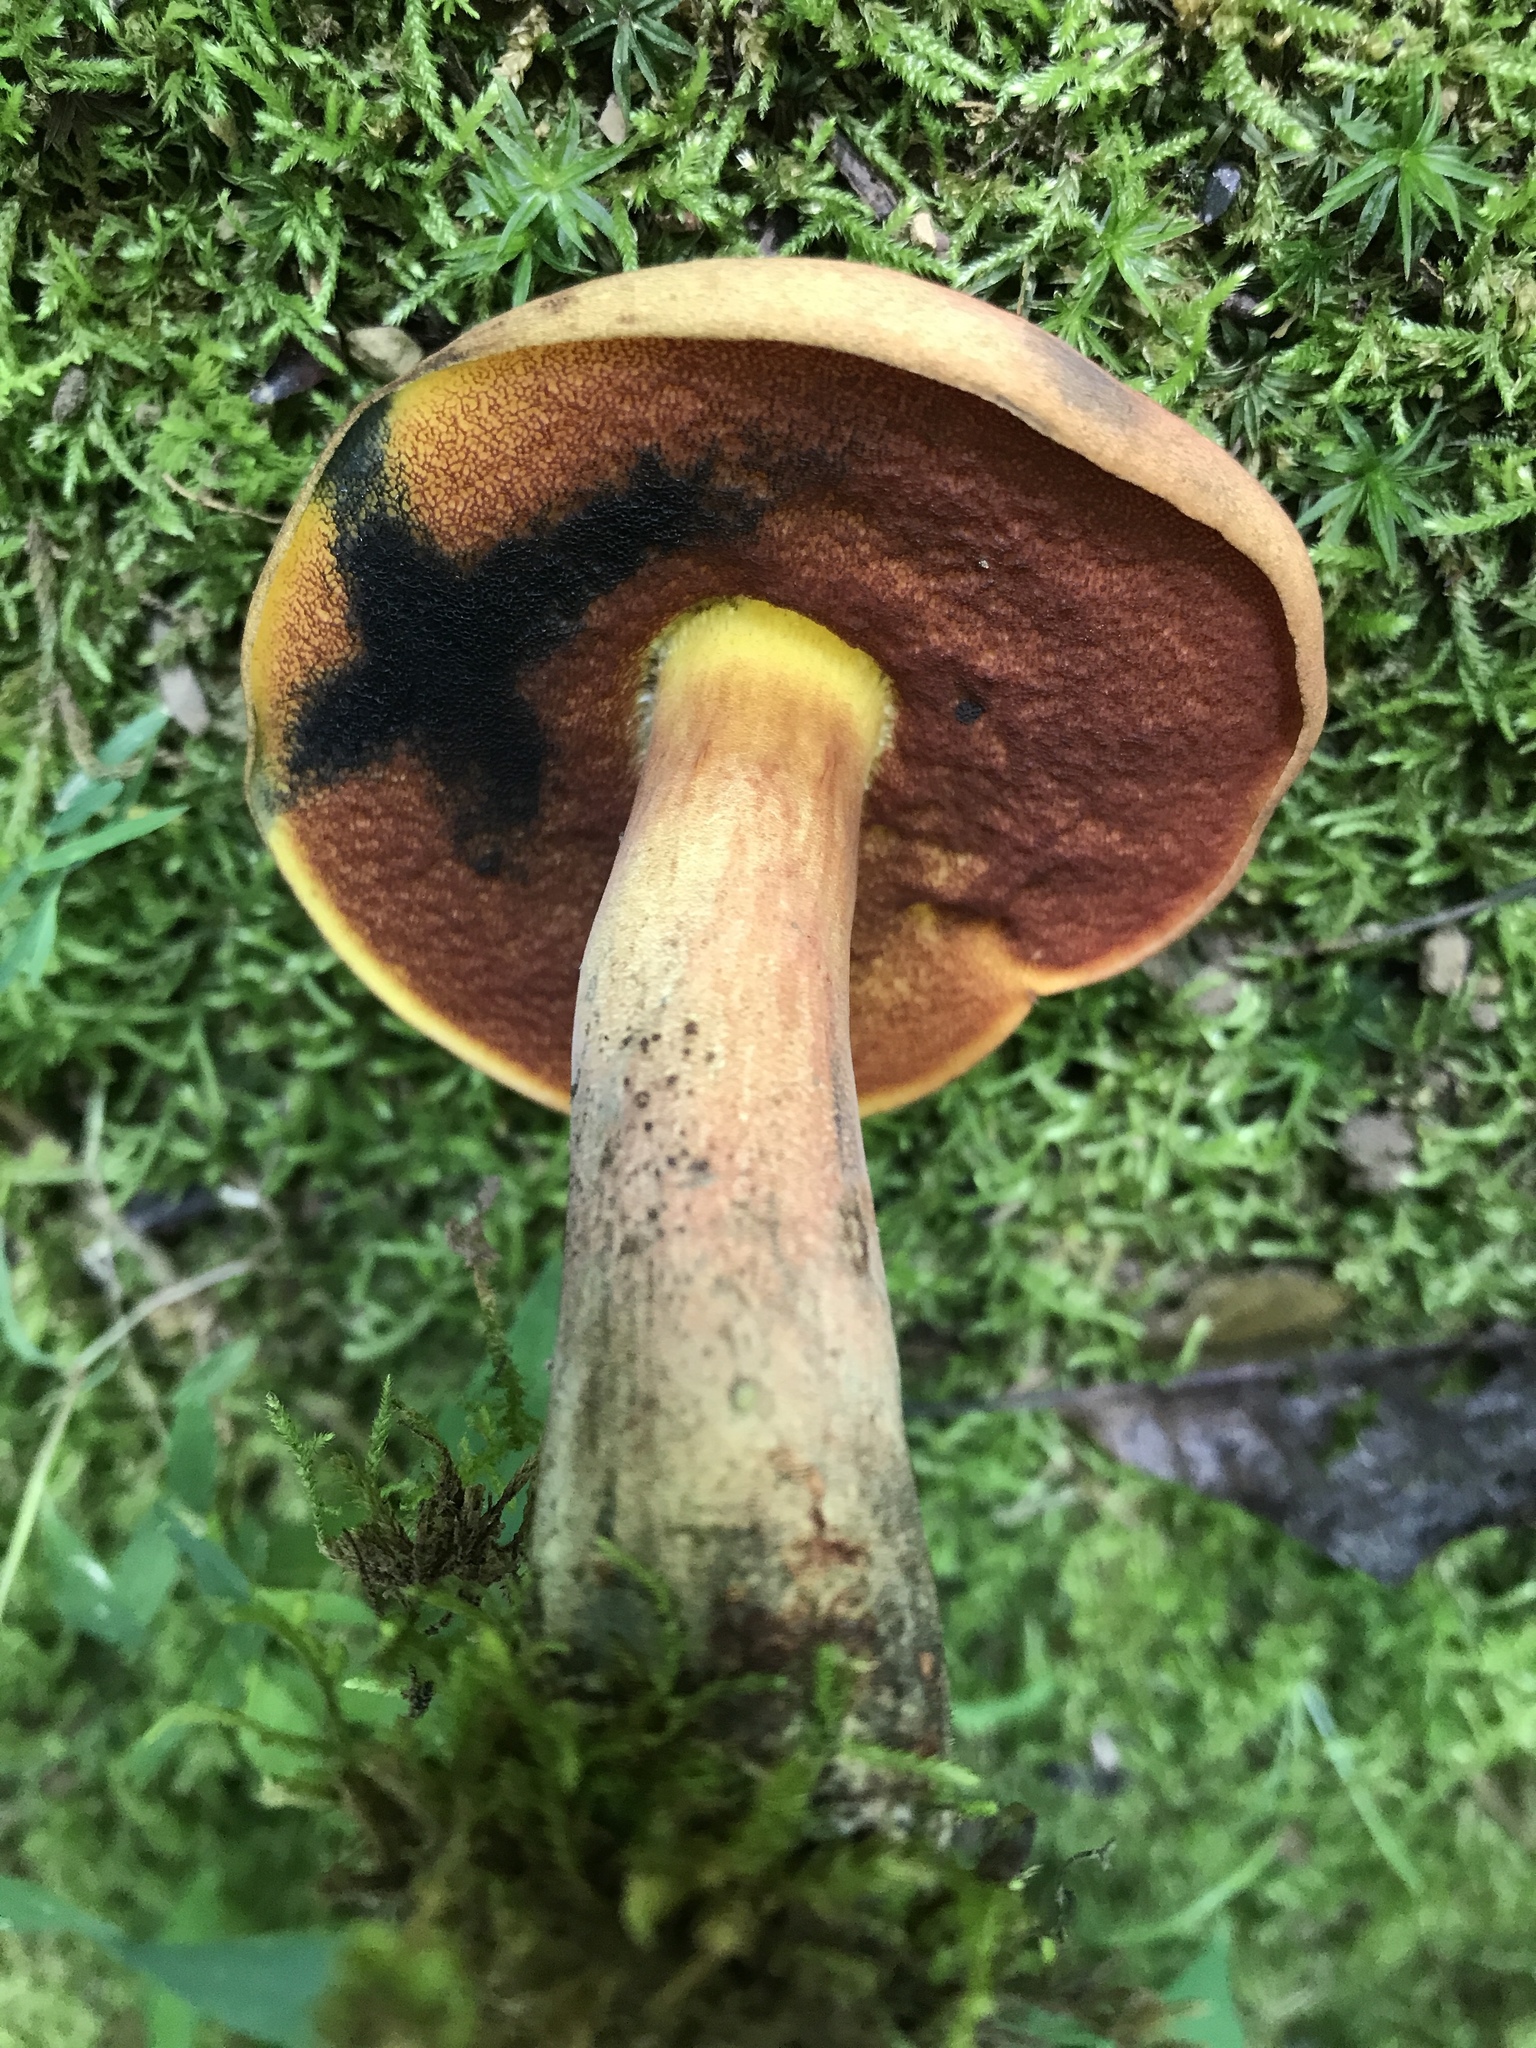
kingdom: Fungi
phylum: Basidiomycota
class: Agaricomycetes
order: Boletales
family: Boletaceae
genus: Boletus
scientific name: Boletus subluridellus
